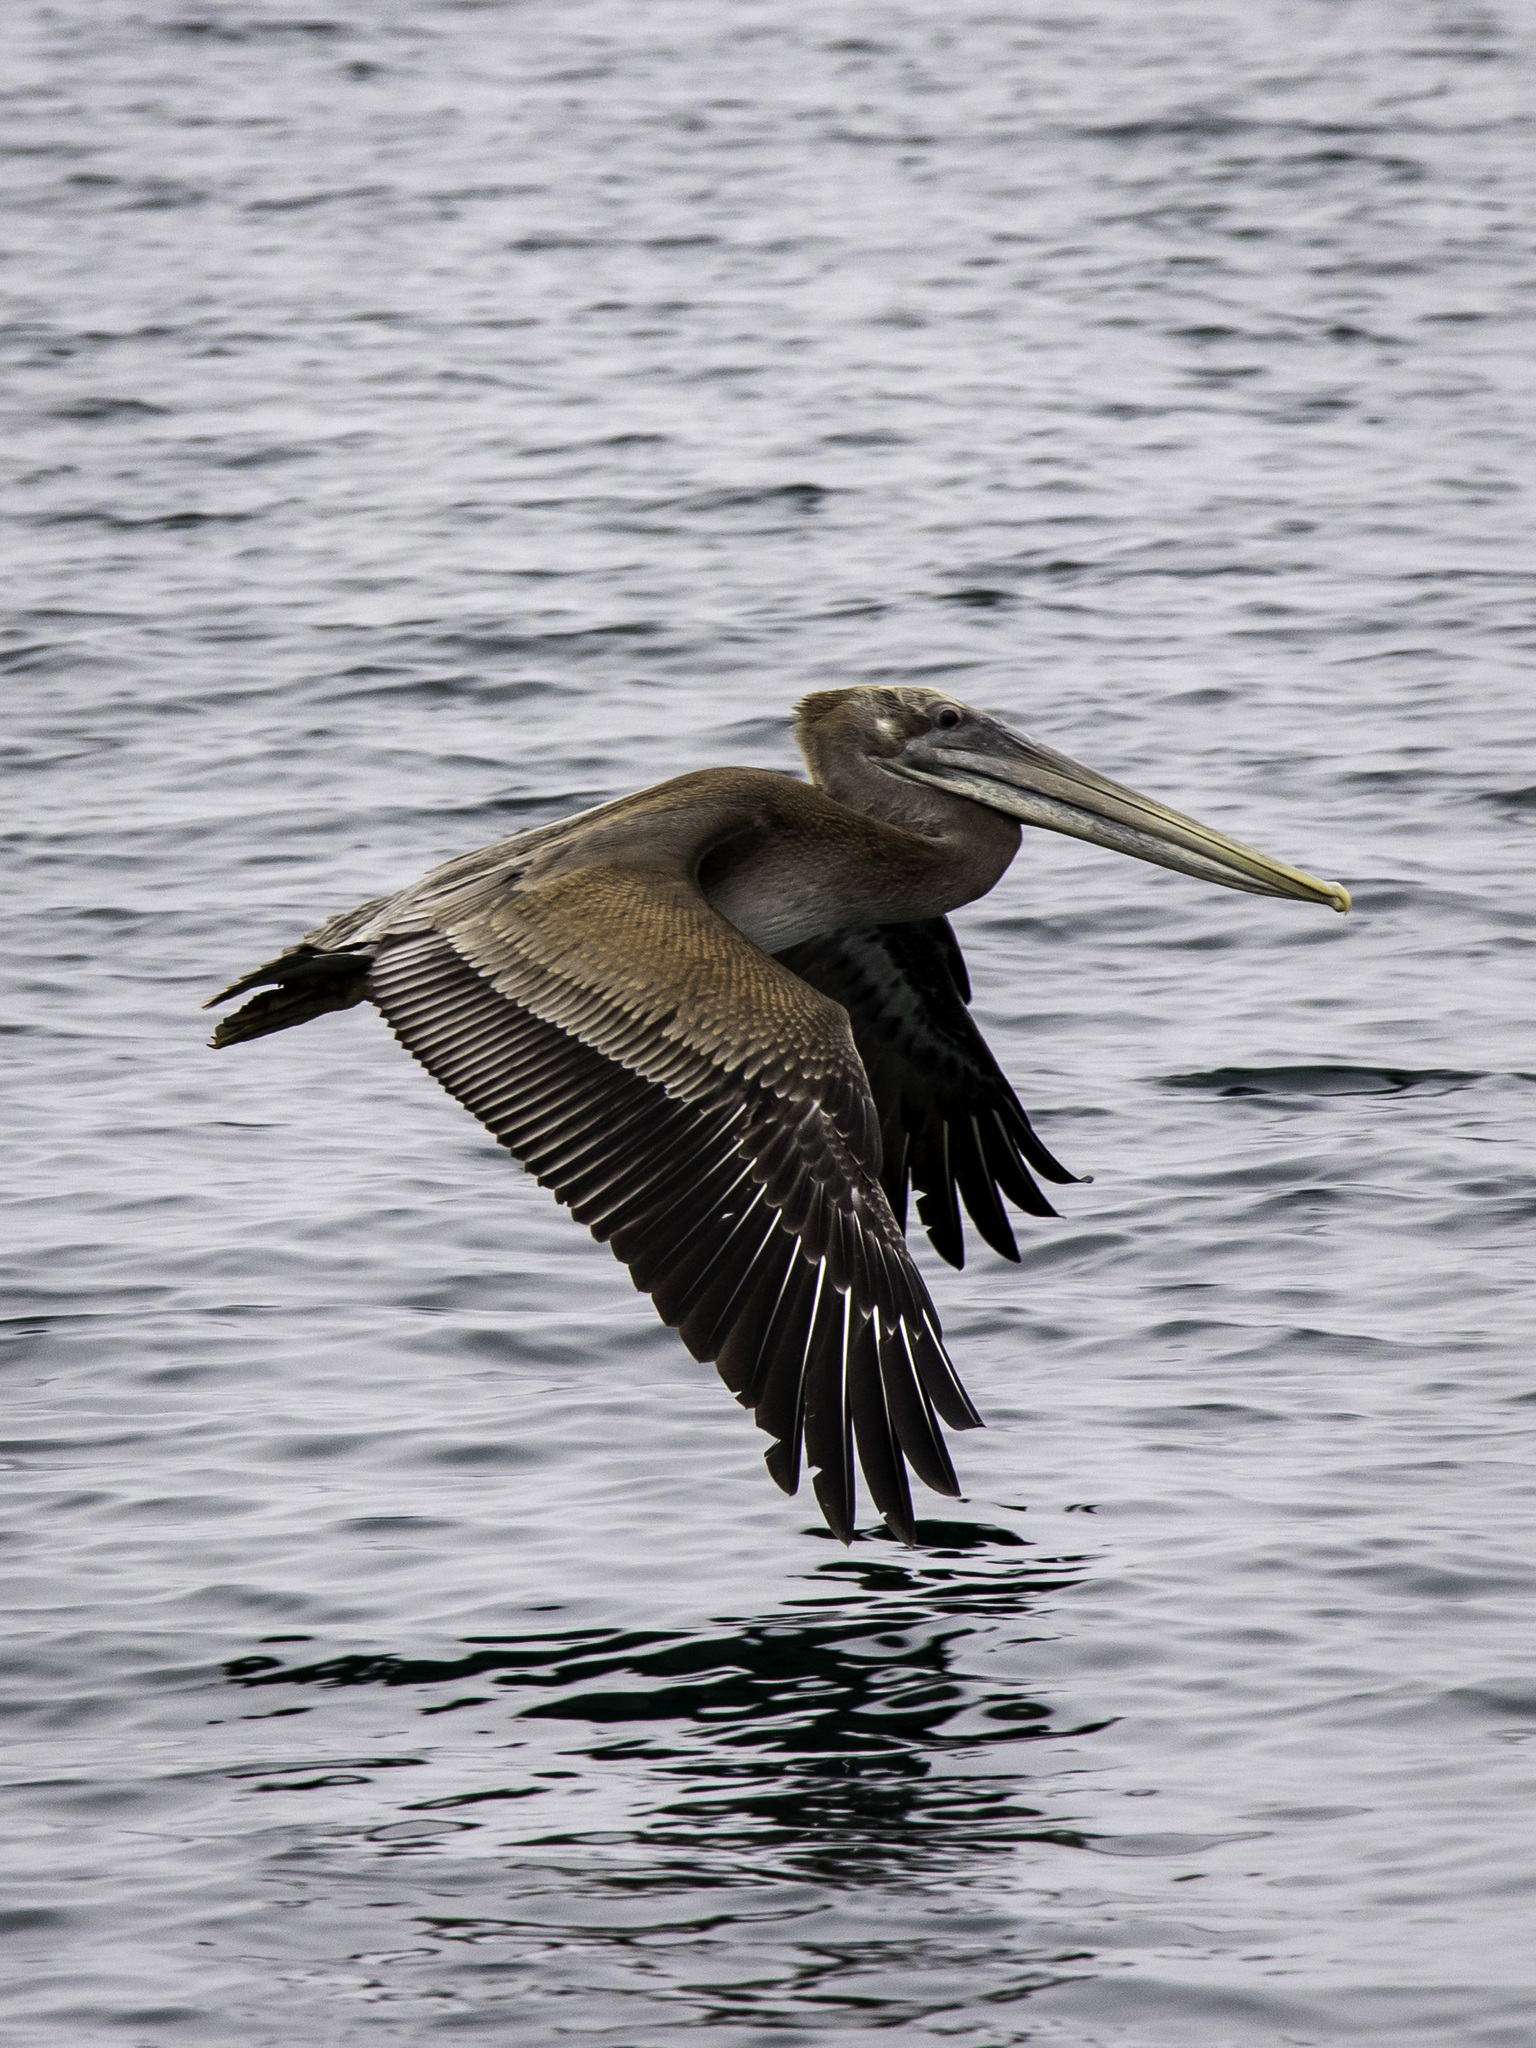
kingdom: Animalia
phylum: Chordata
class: Aves
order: Pelecaniformes
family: Pelecanidae
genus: Pelecanus
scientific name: Pelecanus occidentalis
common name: Brown pelican
